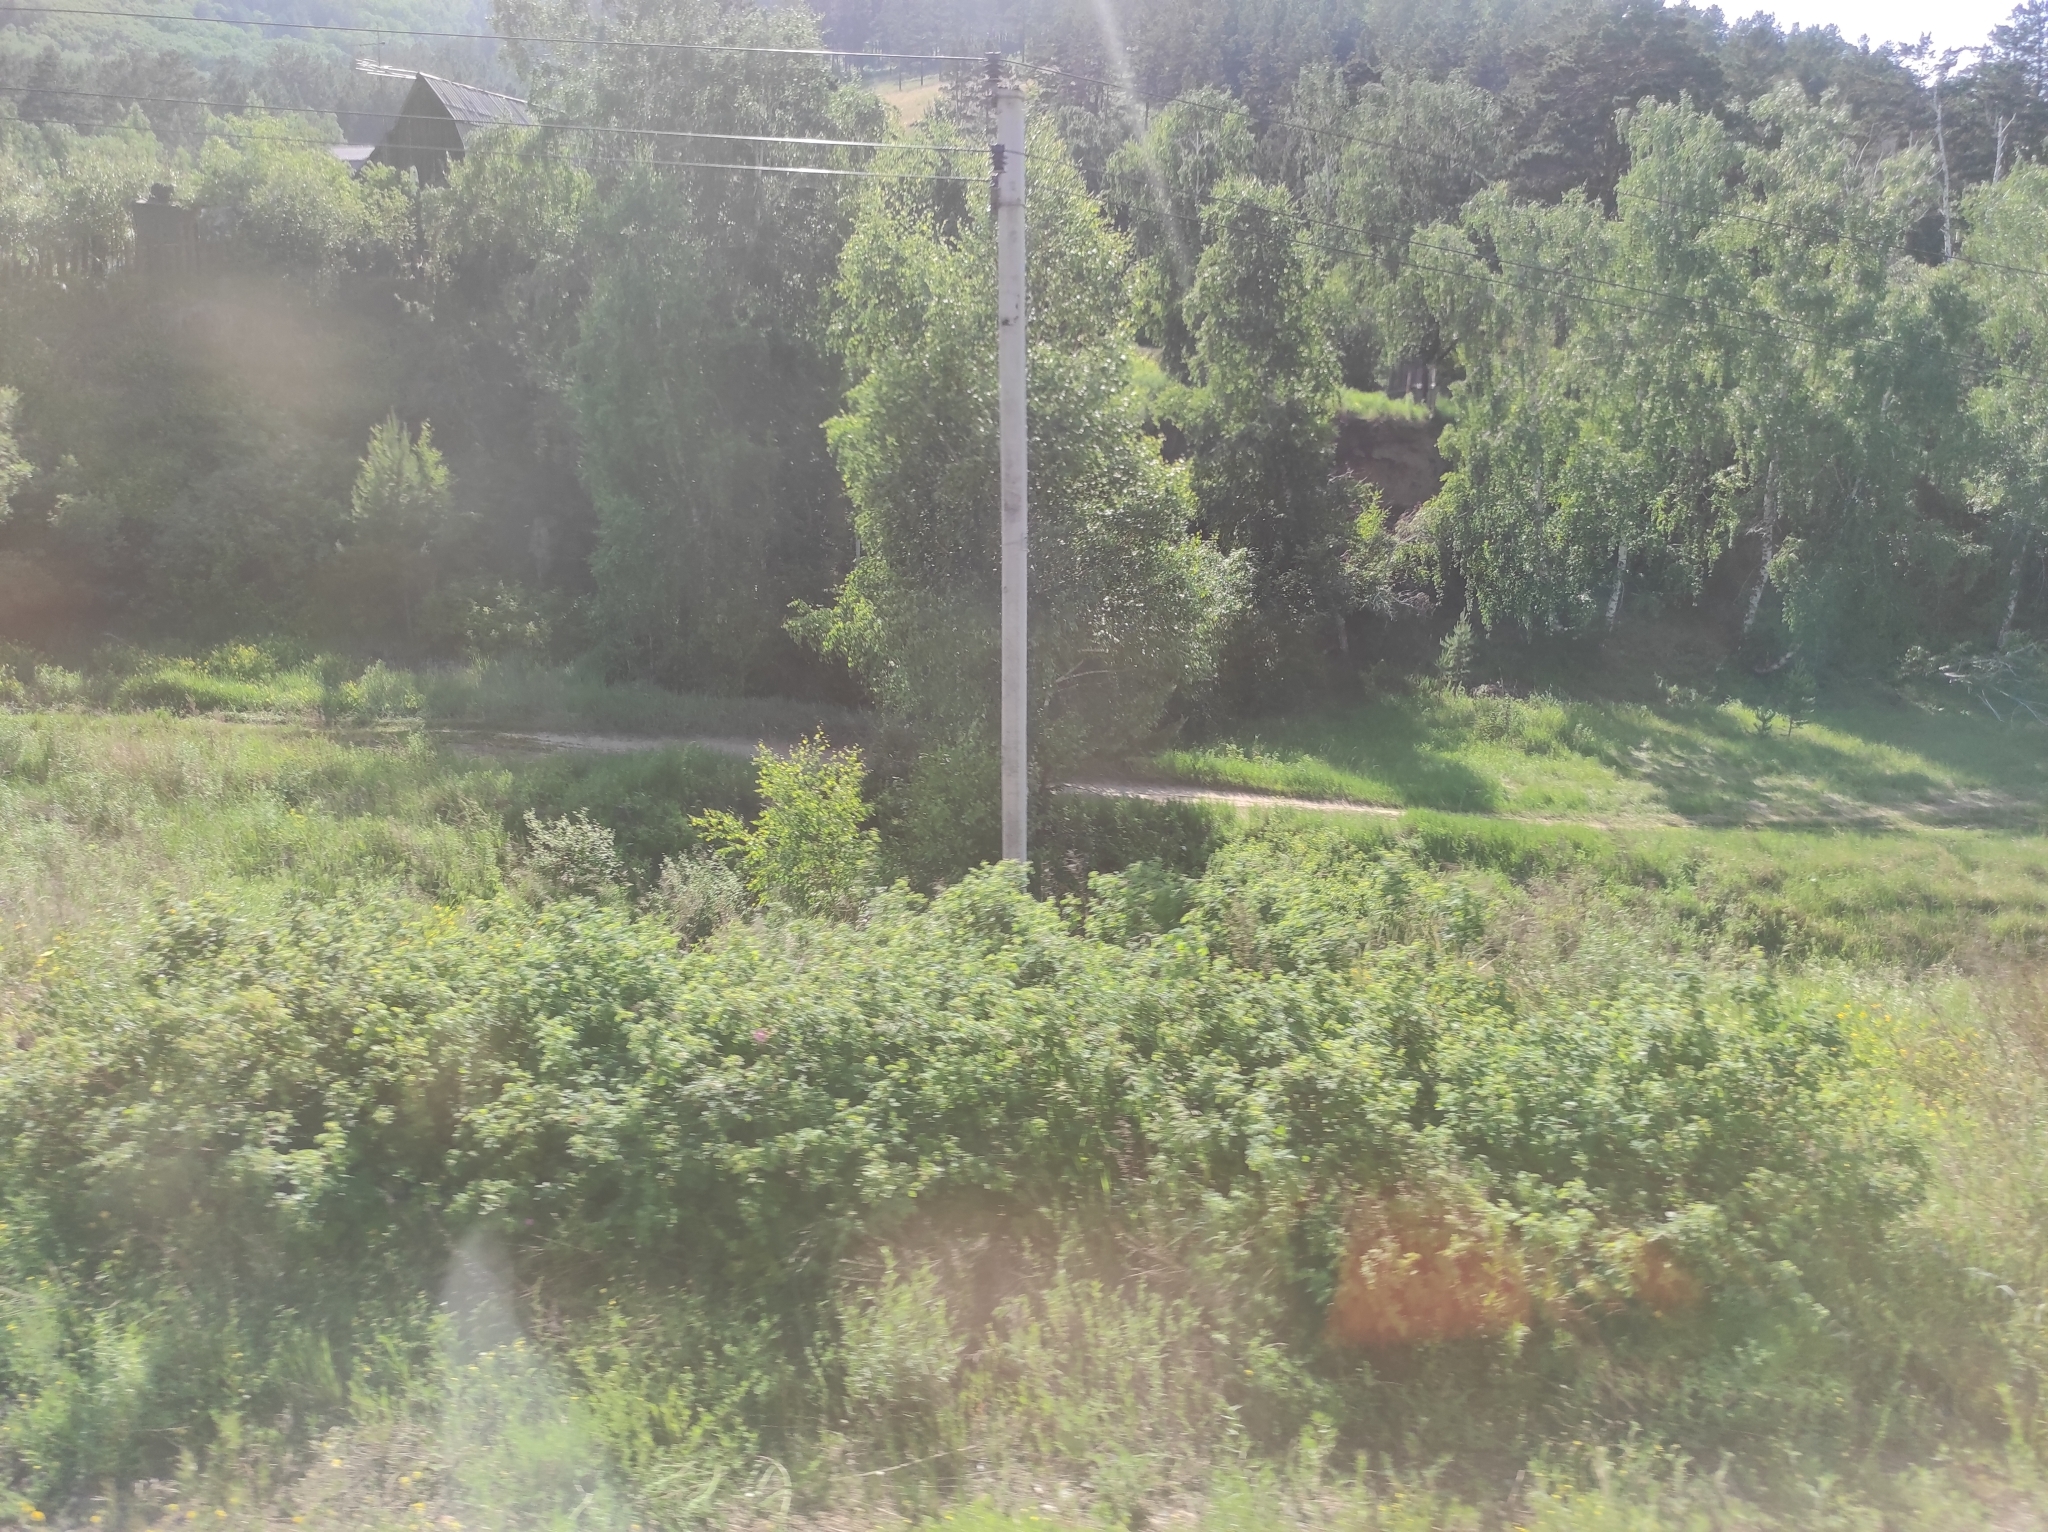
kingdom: Plantae
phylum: Tracheophyta
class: Magnoliopsida
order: Fagales
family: Betulaceae
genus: Betula
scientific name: Betula pendula
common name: Silver birch
